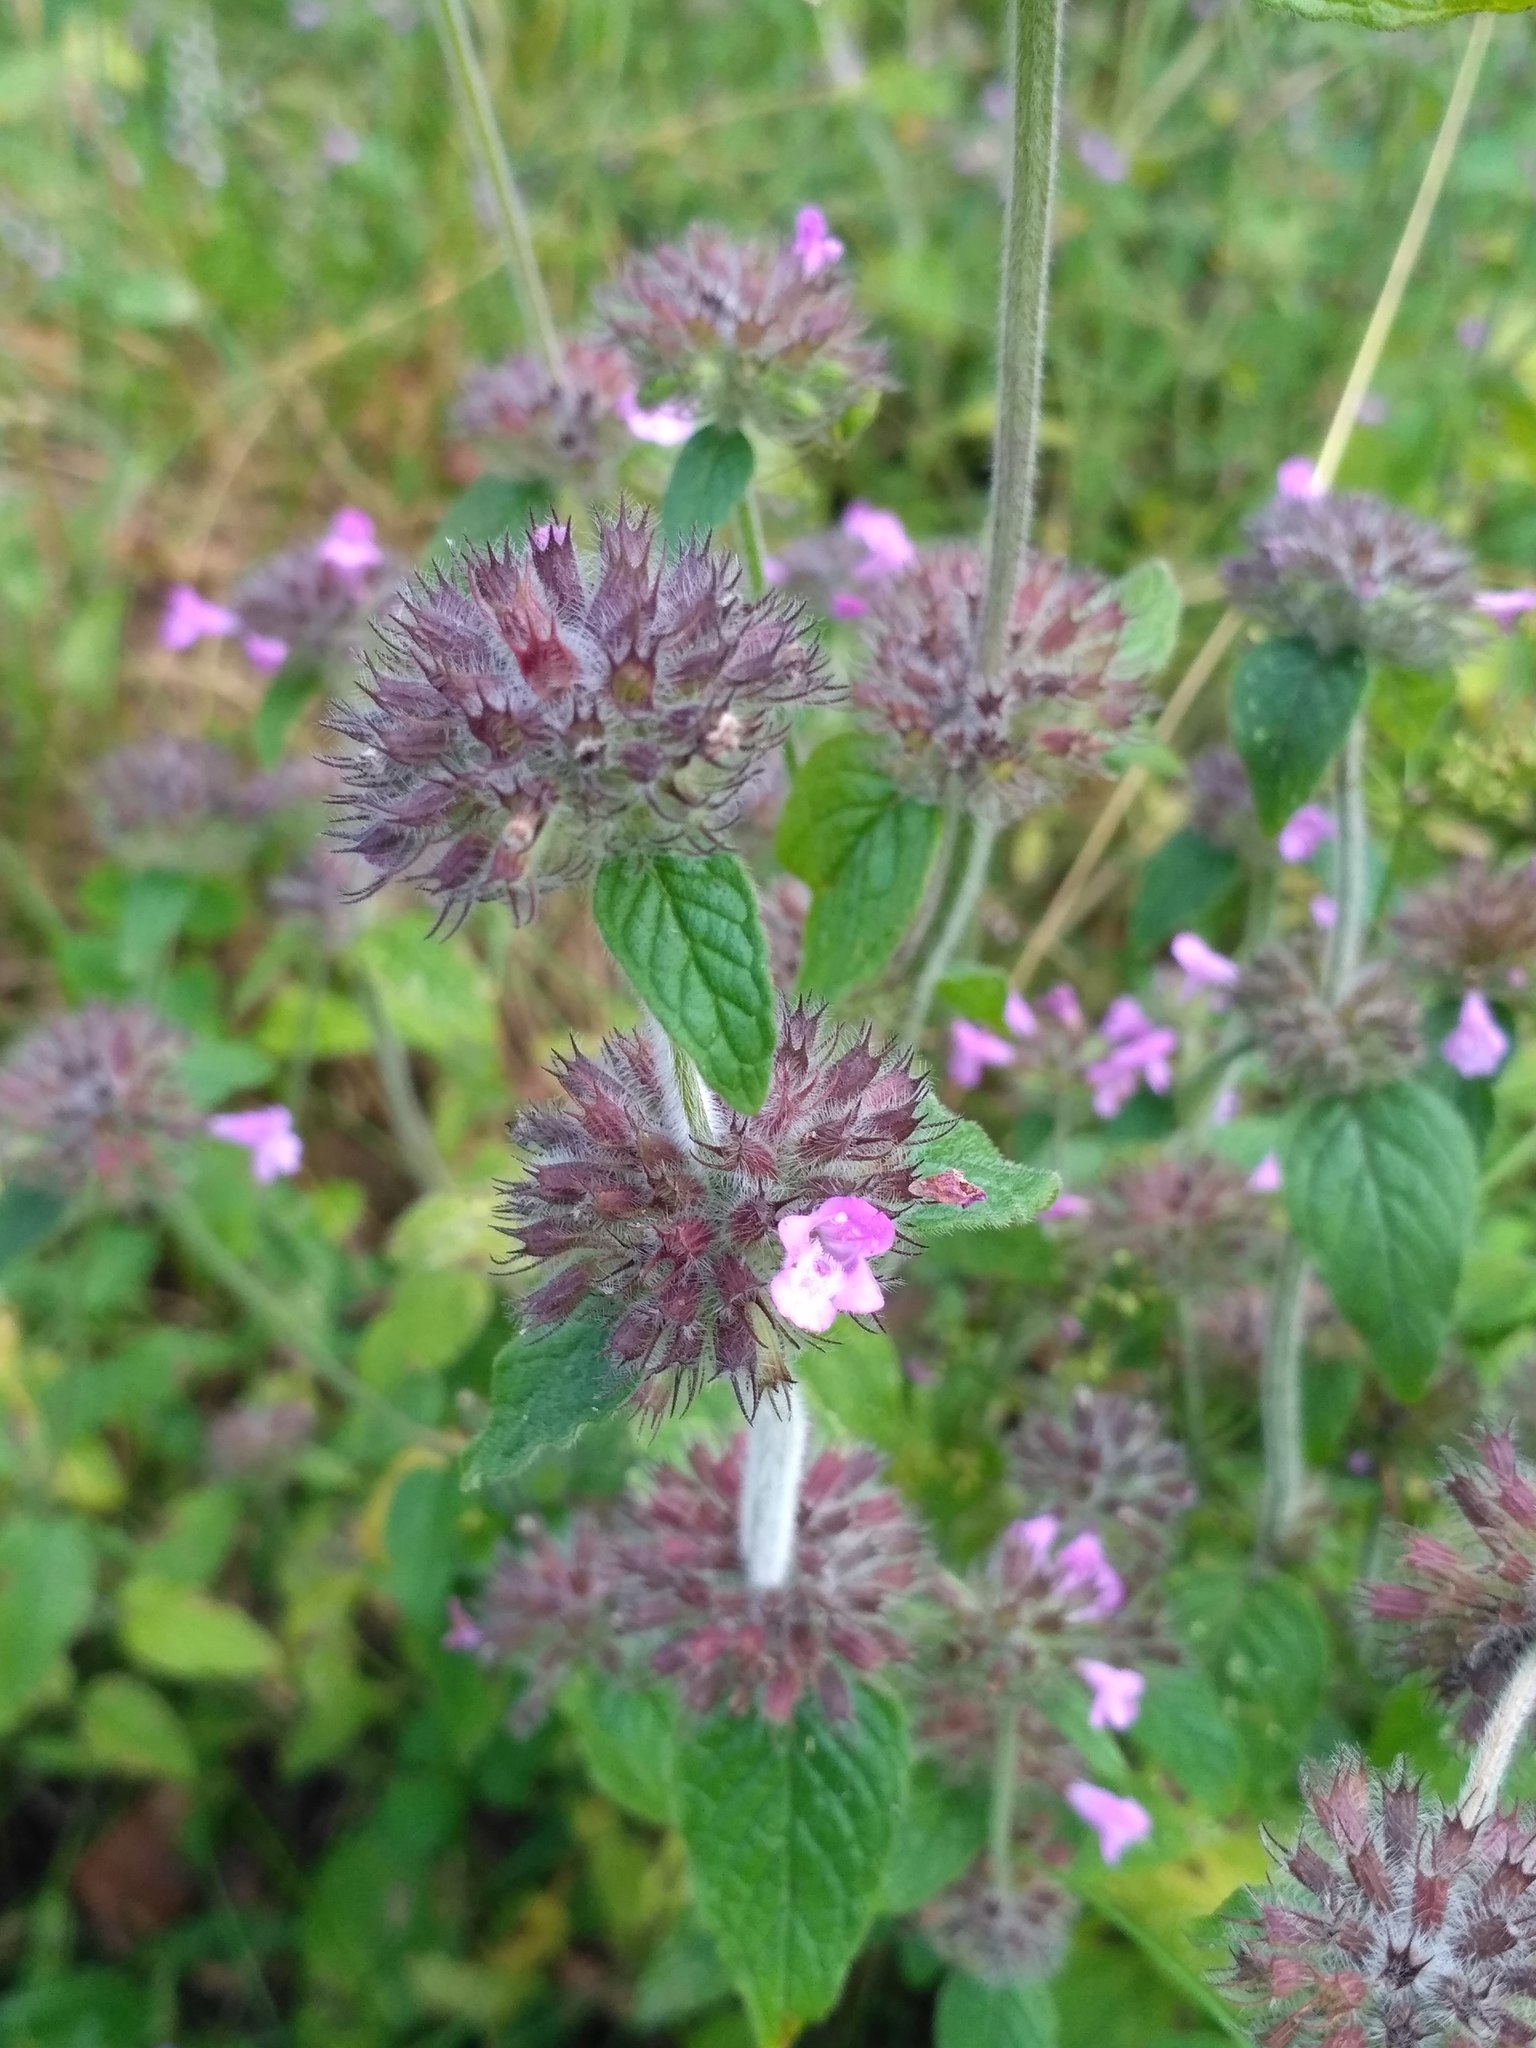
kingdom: Plantae
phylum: Tracheophyta
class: Magnoliopsida
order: Lamiales
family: Lamiaceae
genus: Clinopodium
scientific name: Clinopodium vulgare
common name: Wild basil
